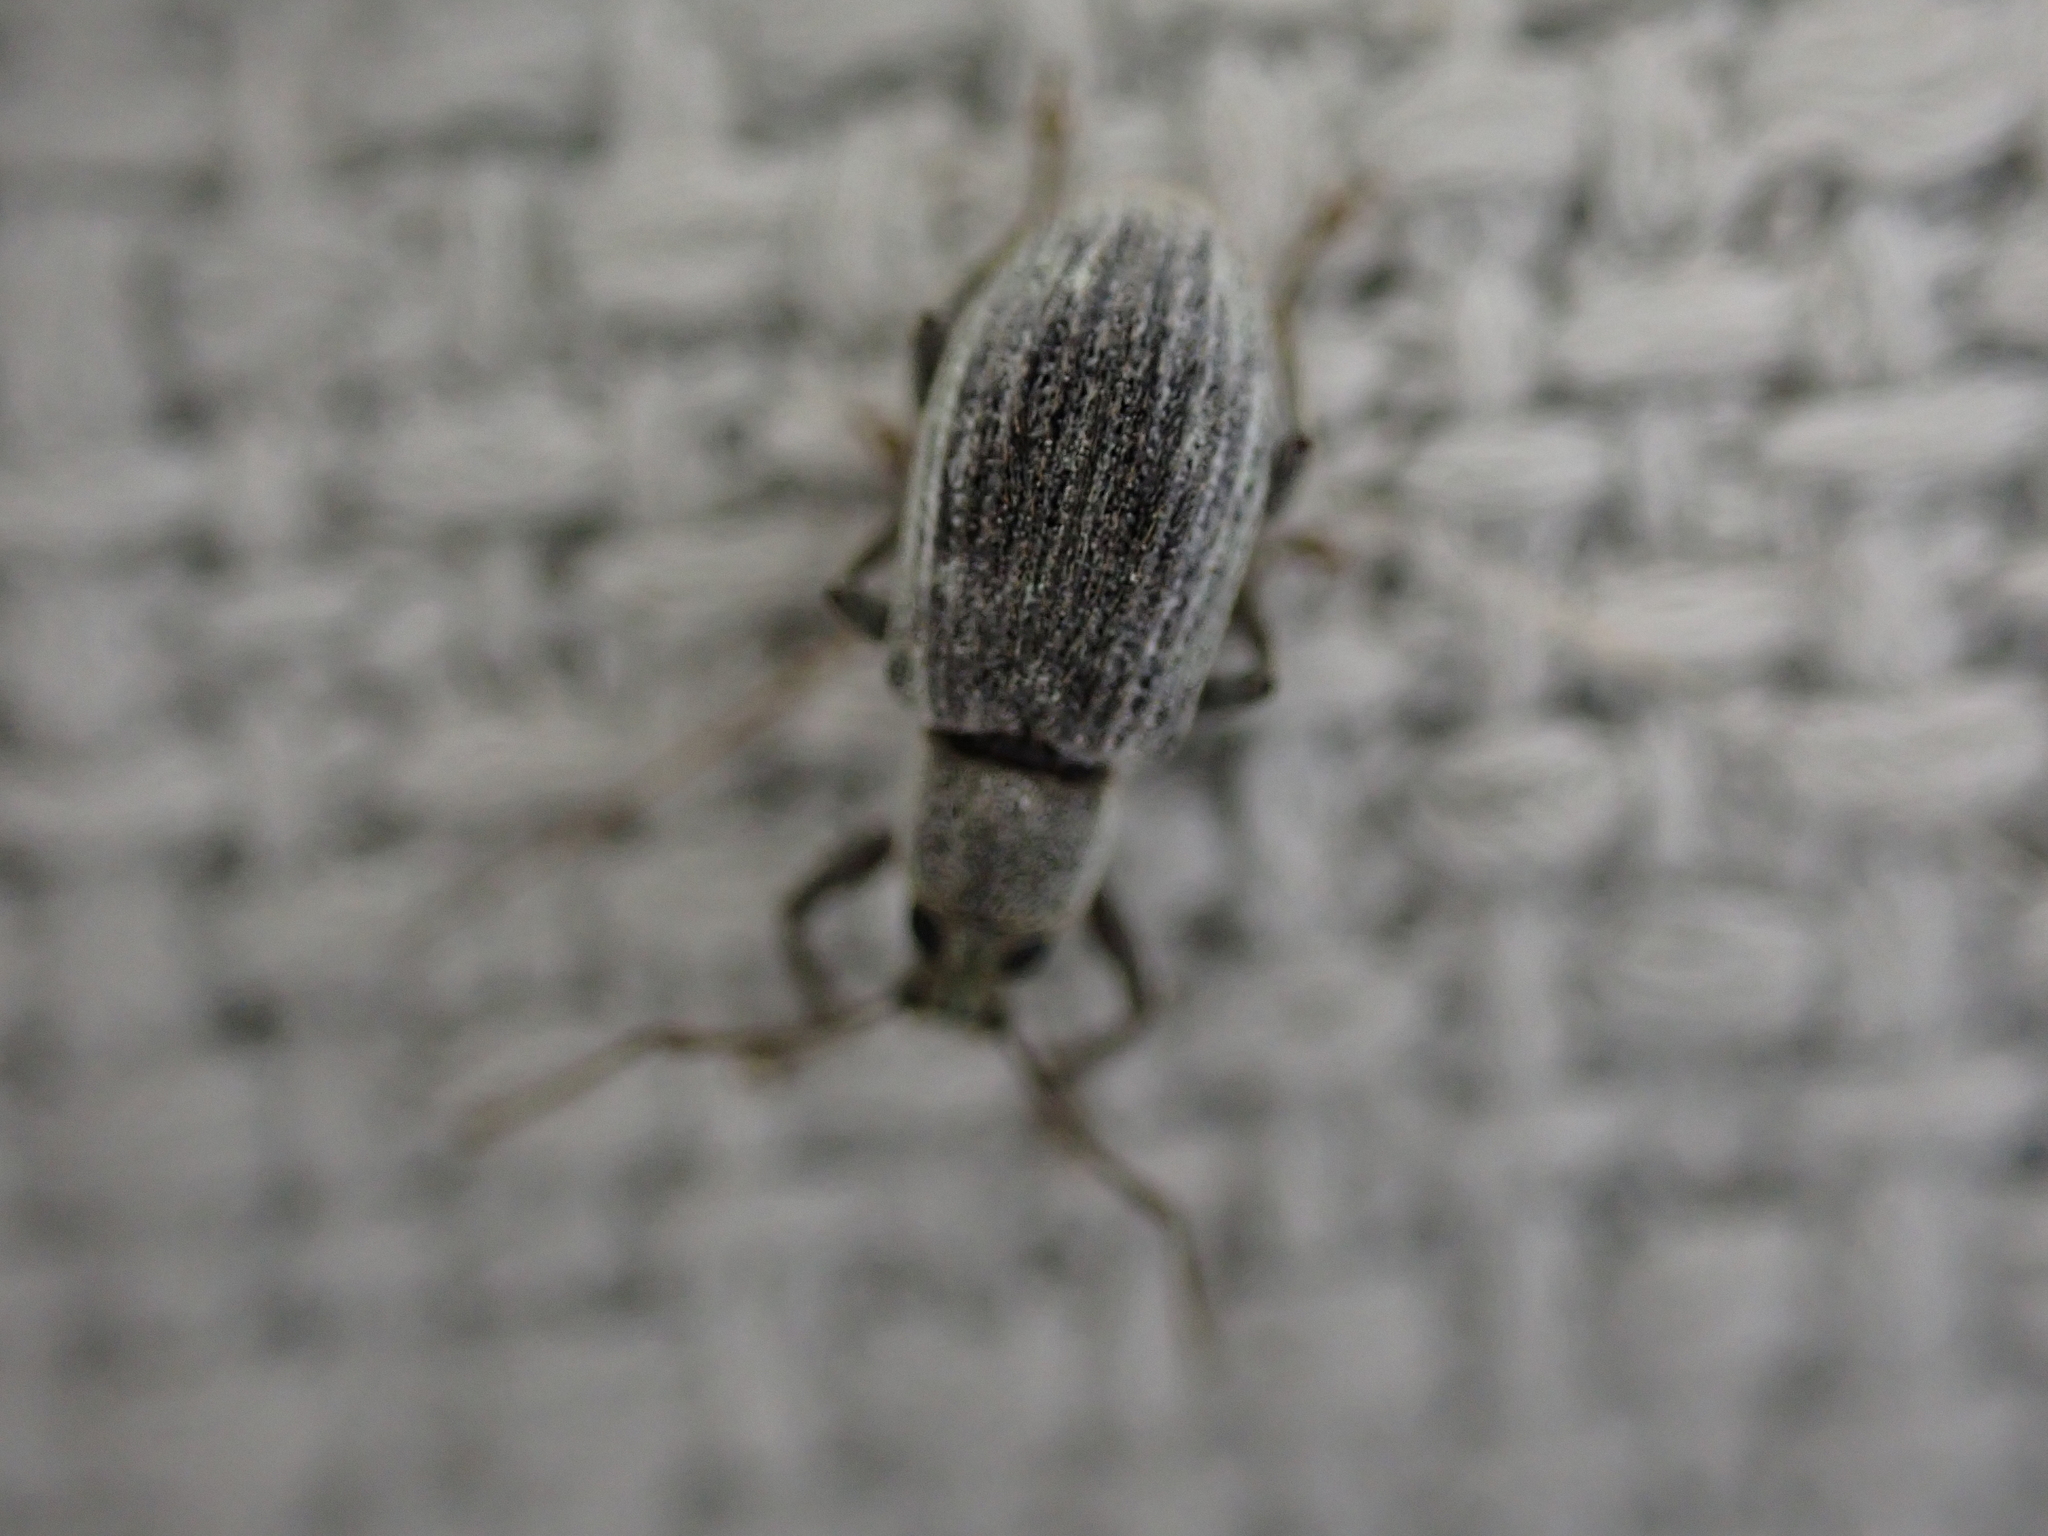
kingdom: Animalia
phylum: Arthropoda
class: Insecta
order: Coleoptera
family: Curculionidae
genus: Cyrtepistomus
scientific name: Cyrtepistomus castaneus
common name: Weevil
